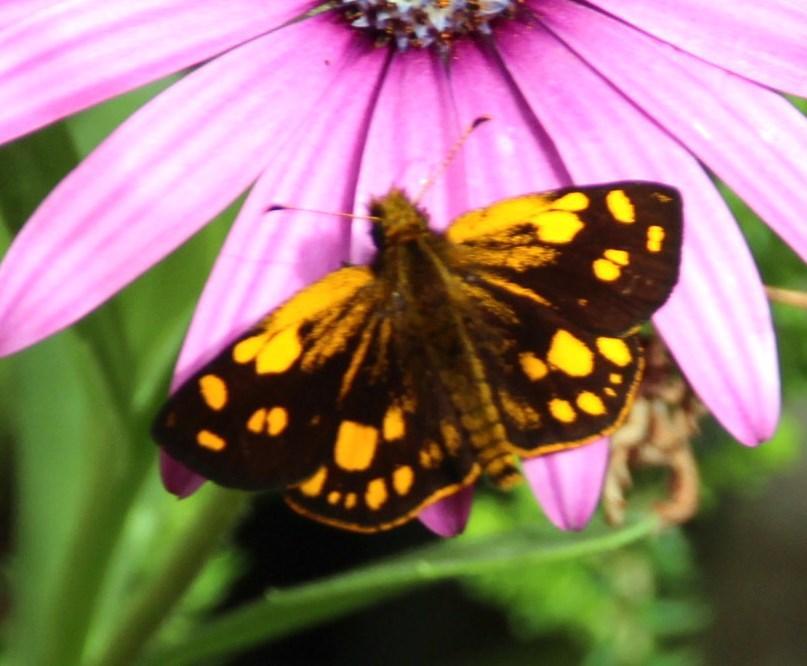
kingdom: Animalia
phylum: Arthropoda
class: Insecta
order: Lepidoptera
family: Hesperiidae
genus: Metisella
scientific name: Metisella metis
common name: Western gold-spotted sylph
